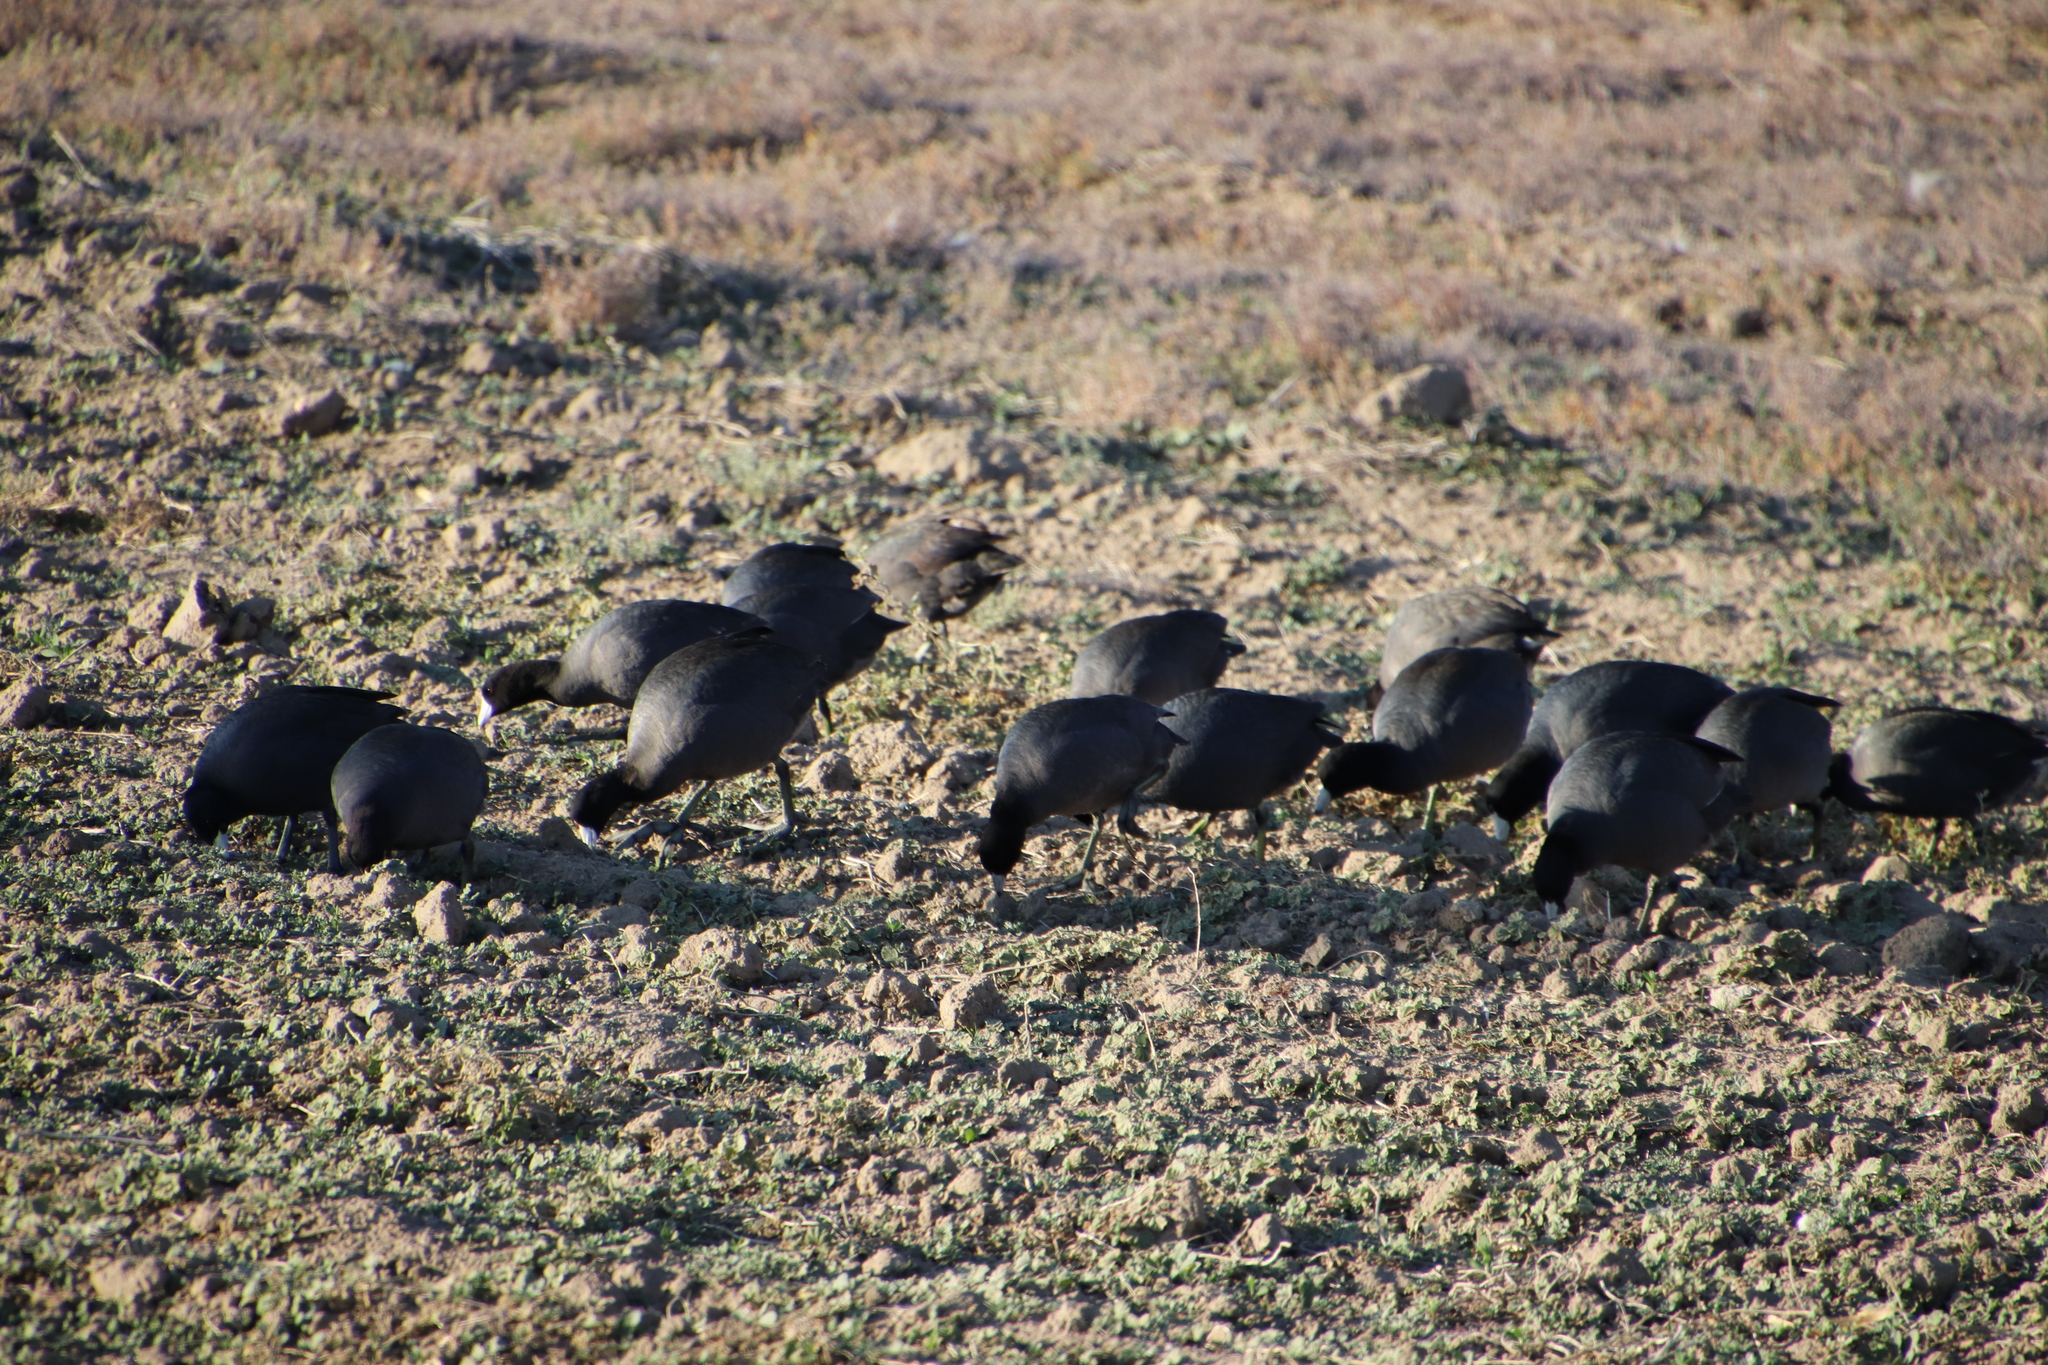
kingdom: Animalia
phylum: Chordata
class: Aves
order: Gruiformes
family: Rallidae
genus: Fulica
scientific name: Fulica americana
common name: American coot
